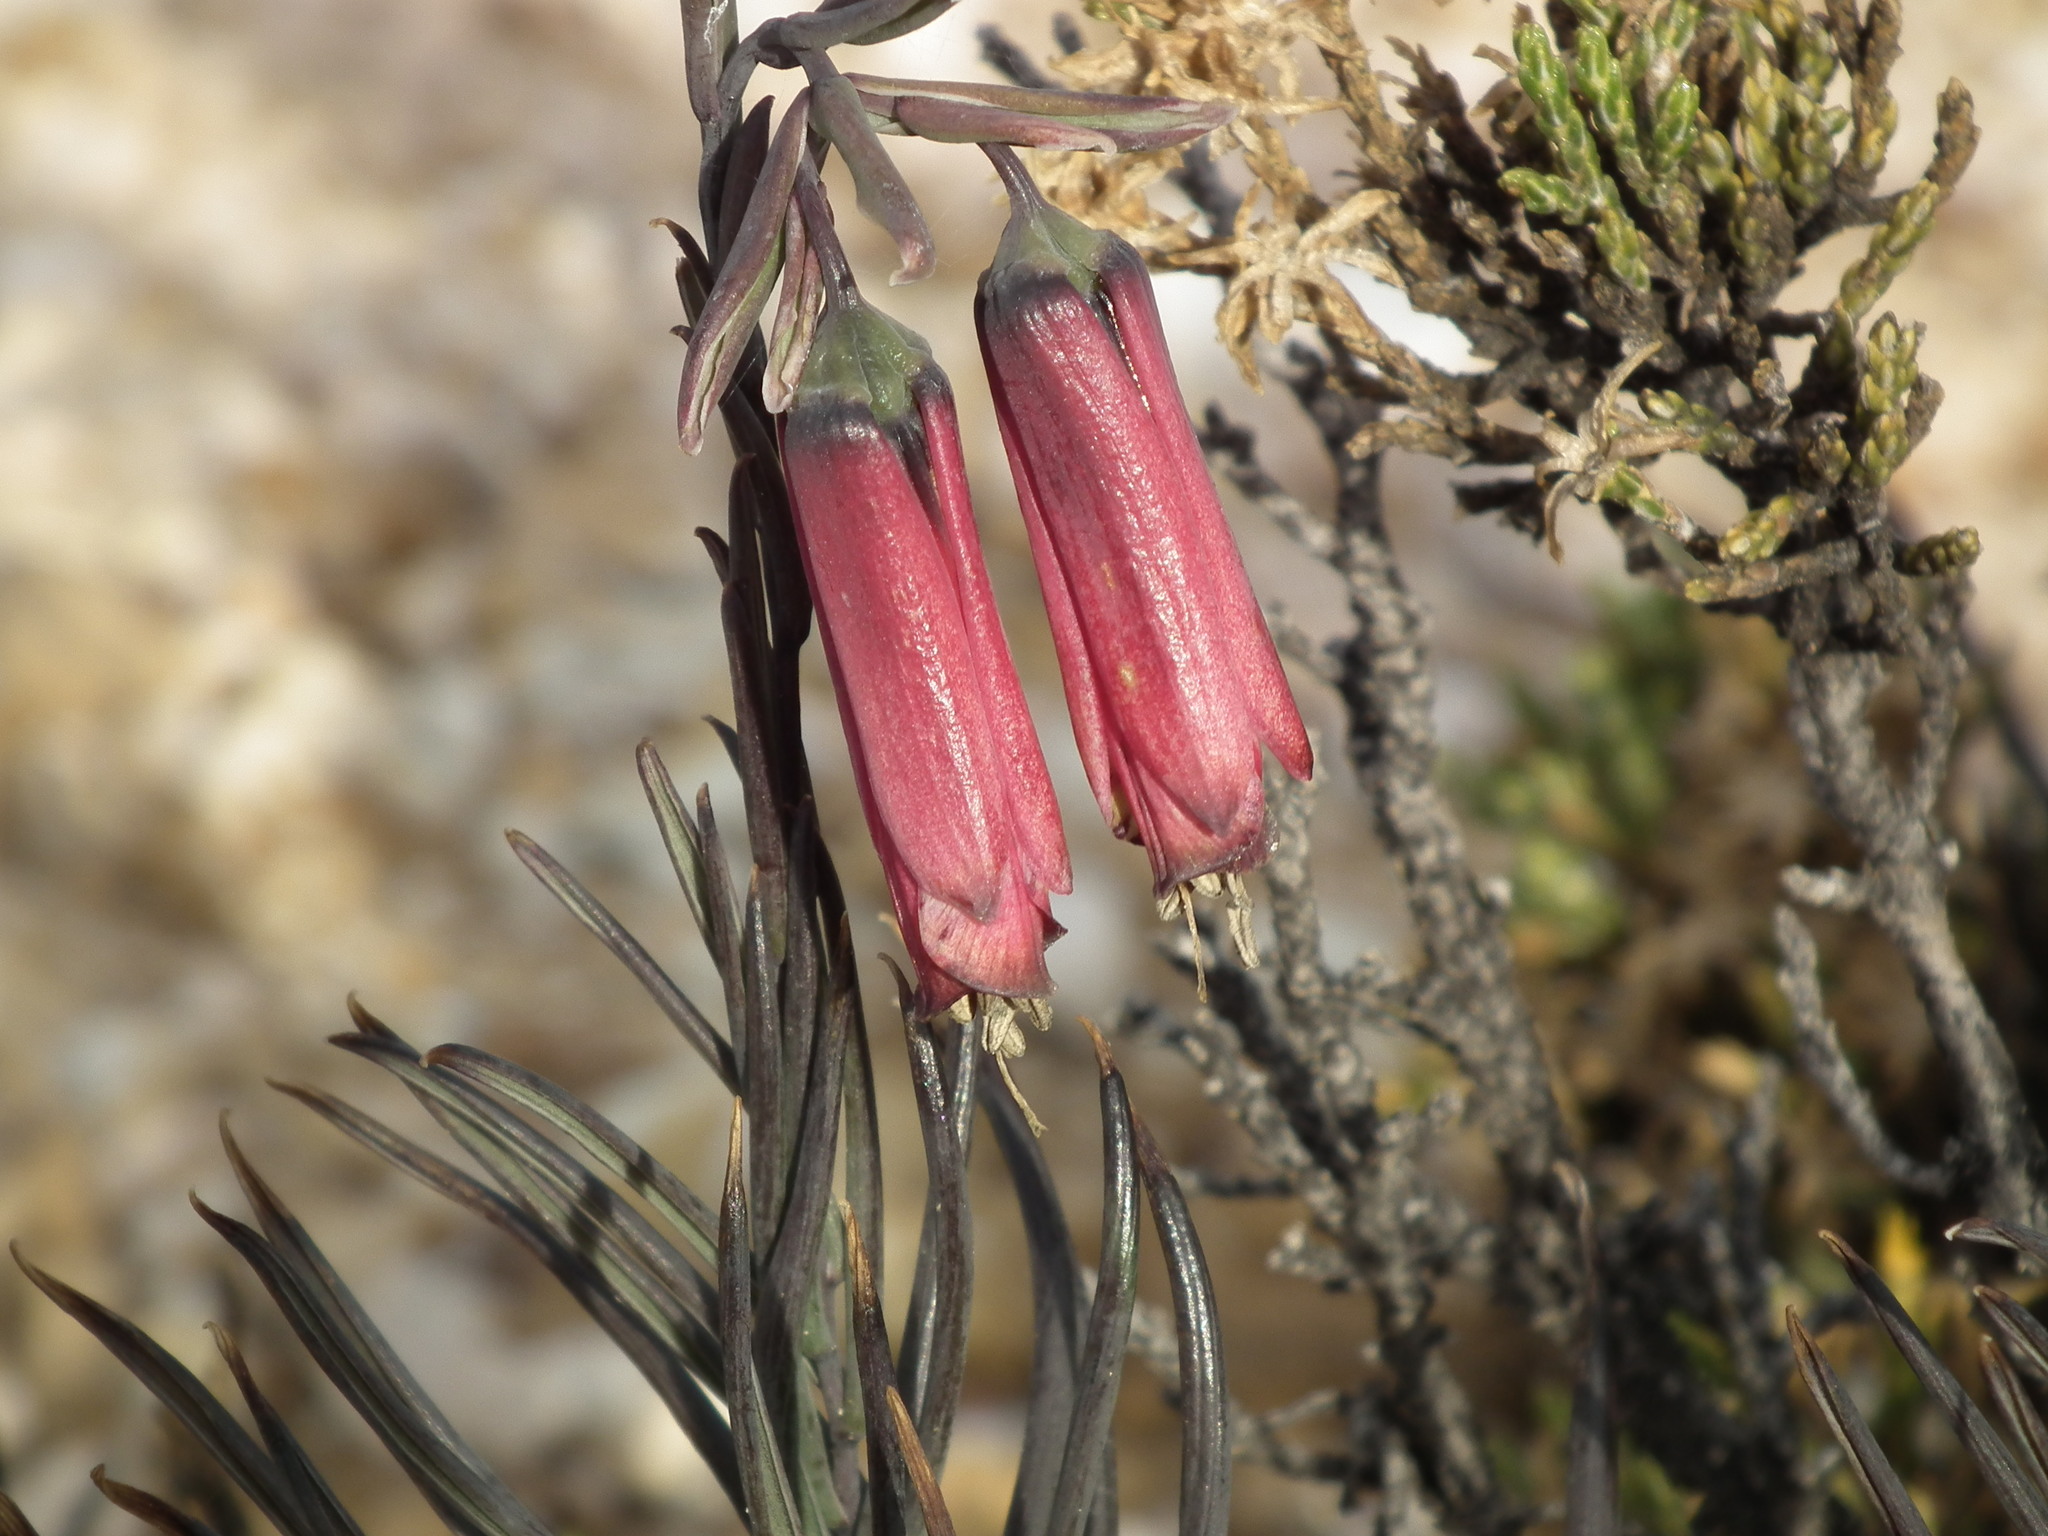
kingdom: Plantae
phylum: Tracheophyta
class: Liliopsida
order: Liliales
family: Alstroemeriaceae
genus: Bomarea
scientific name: Bomarea dulcis
